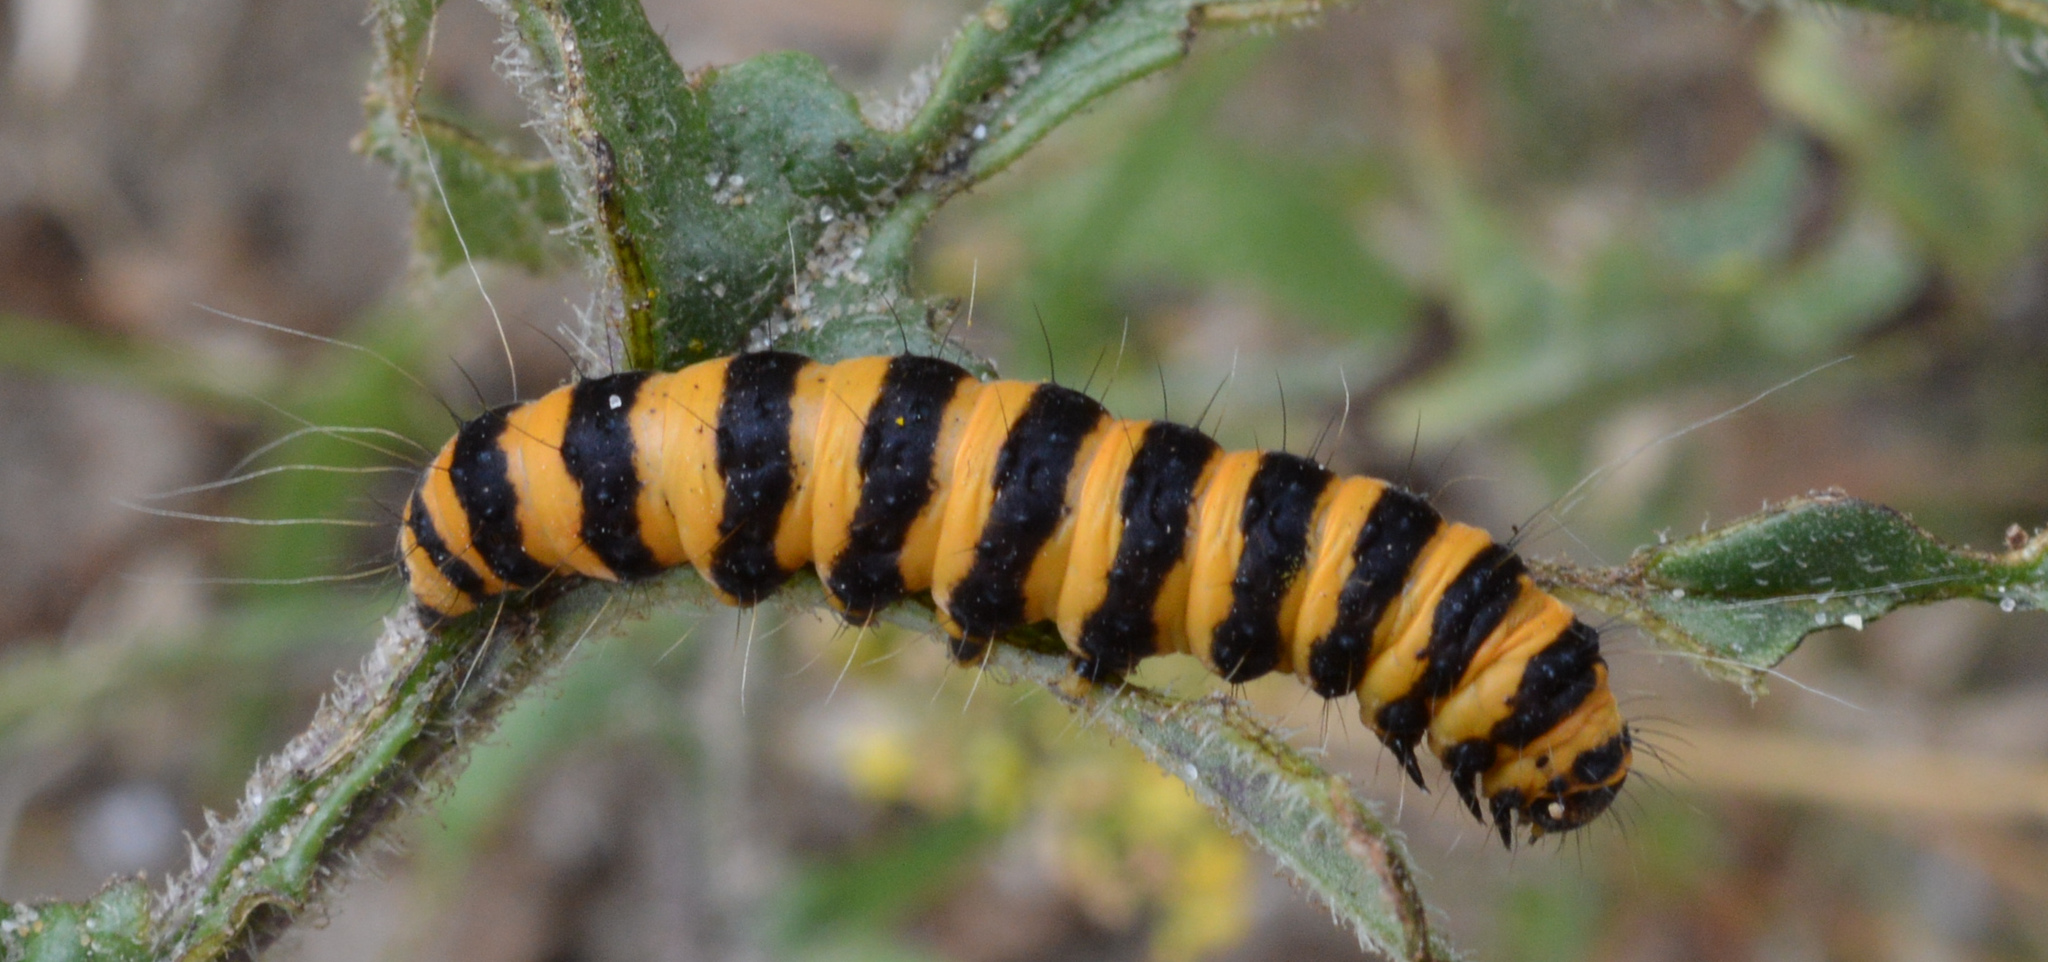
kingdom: Animalia
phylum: Arthropoda
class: Insecta
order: Lepidoptera
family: Erebidae
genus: Tyria
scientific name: Tyria jacobaeae
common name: Cinnabar
